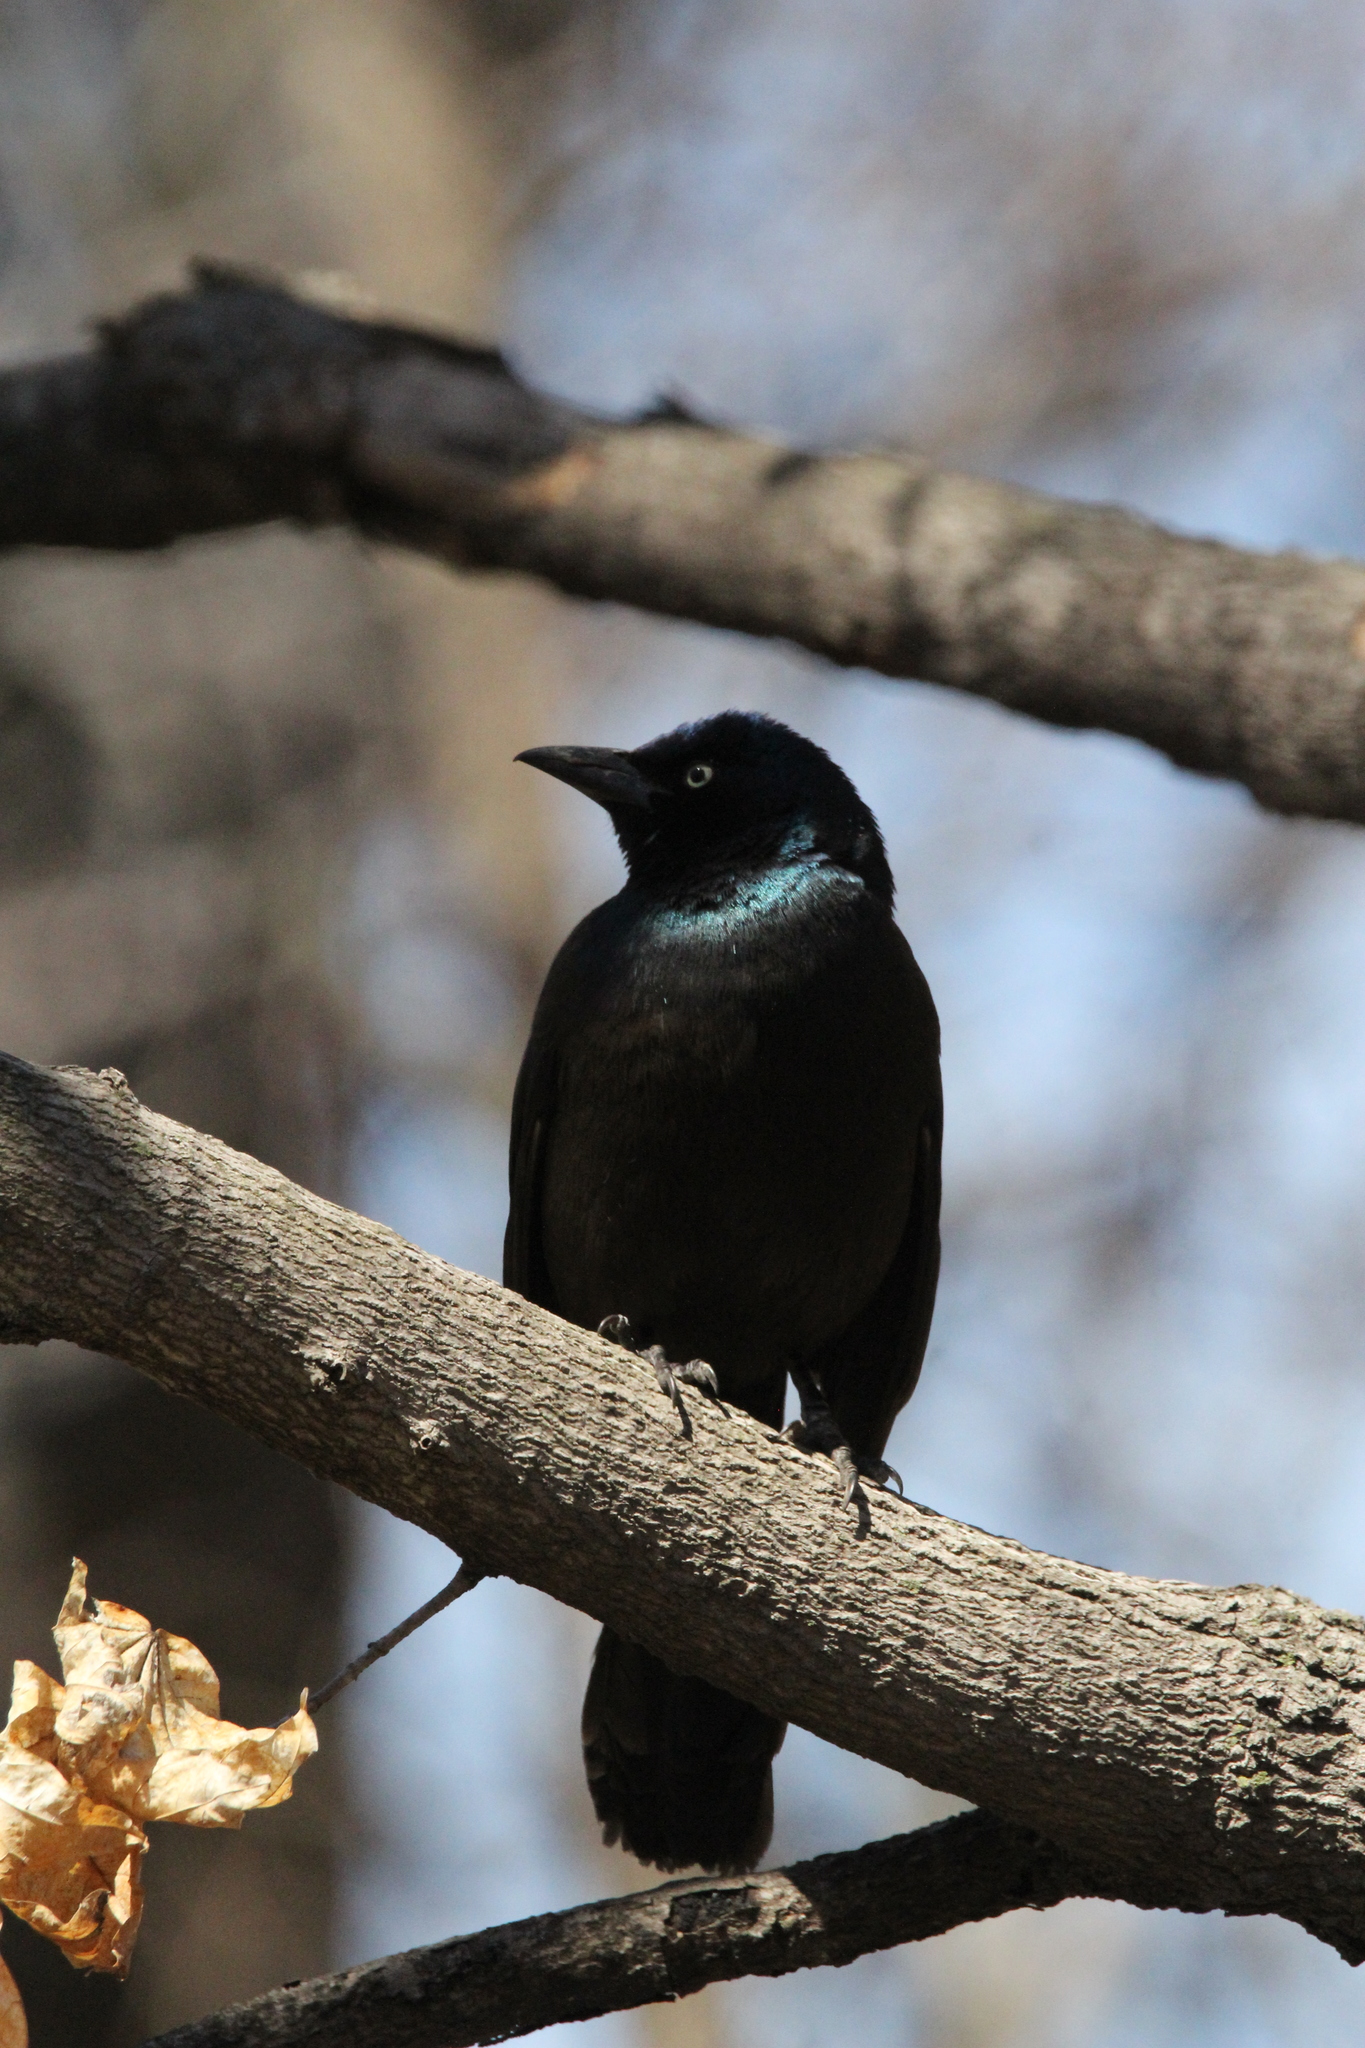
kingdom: Animalia
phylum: Chordata
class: Aves
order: Passeriformes
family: Icteridae
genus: Quiscalus
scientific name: Quiscalus quiscula
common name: Common grackle
